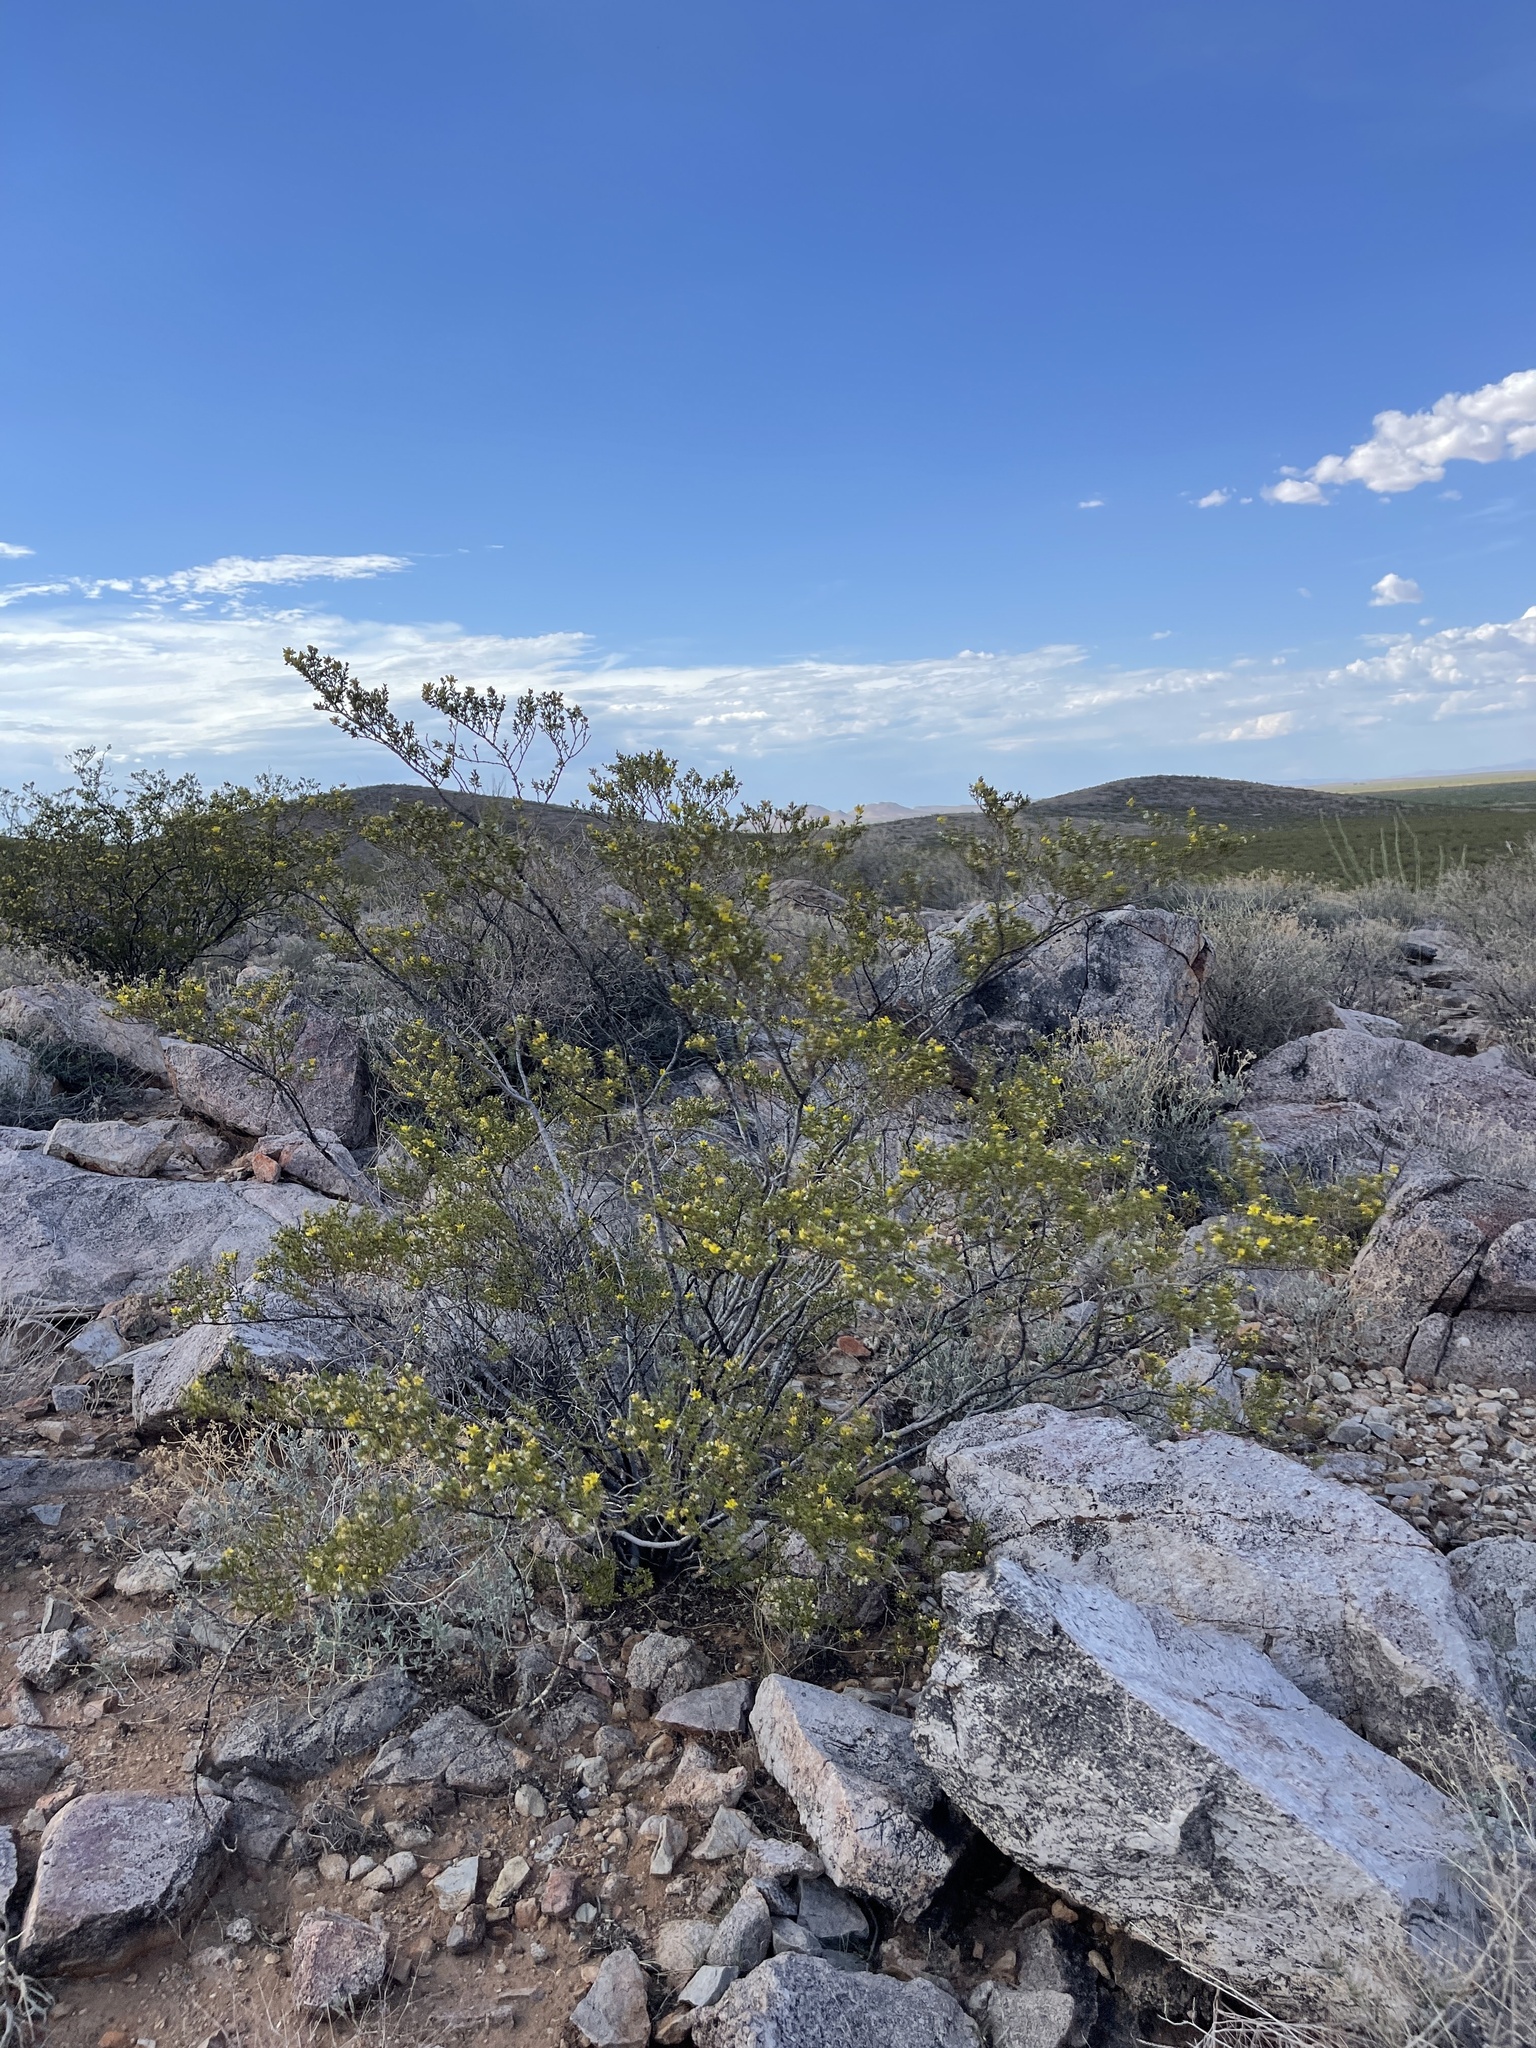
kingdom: Plantae
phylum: Tracheophyta
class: Magnoliopsida
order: Zygophyllales
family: Zygophyllaceae
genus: Larrea
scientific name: Larrea tridentata
